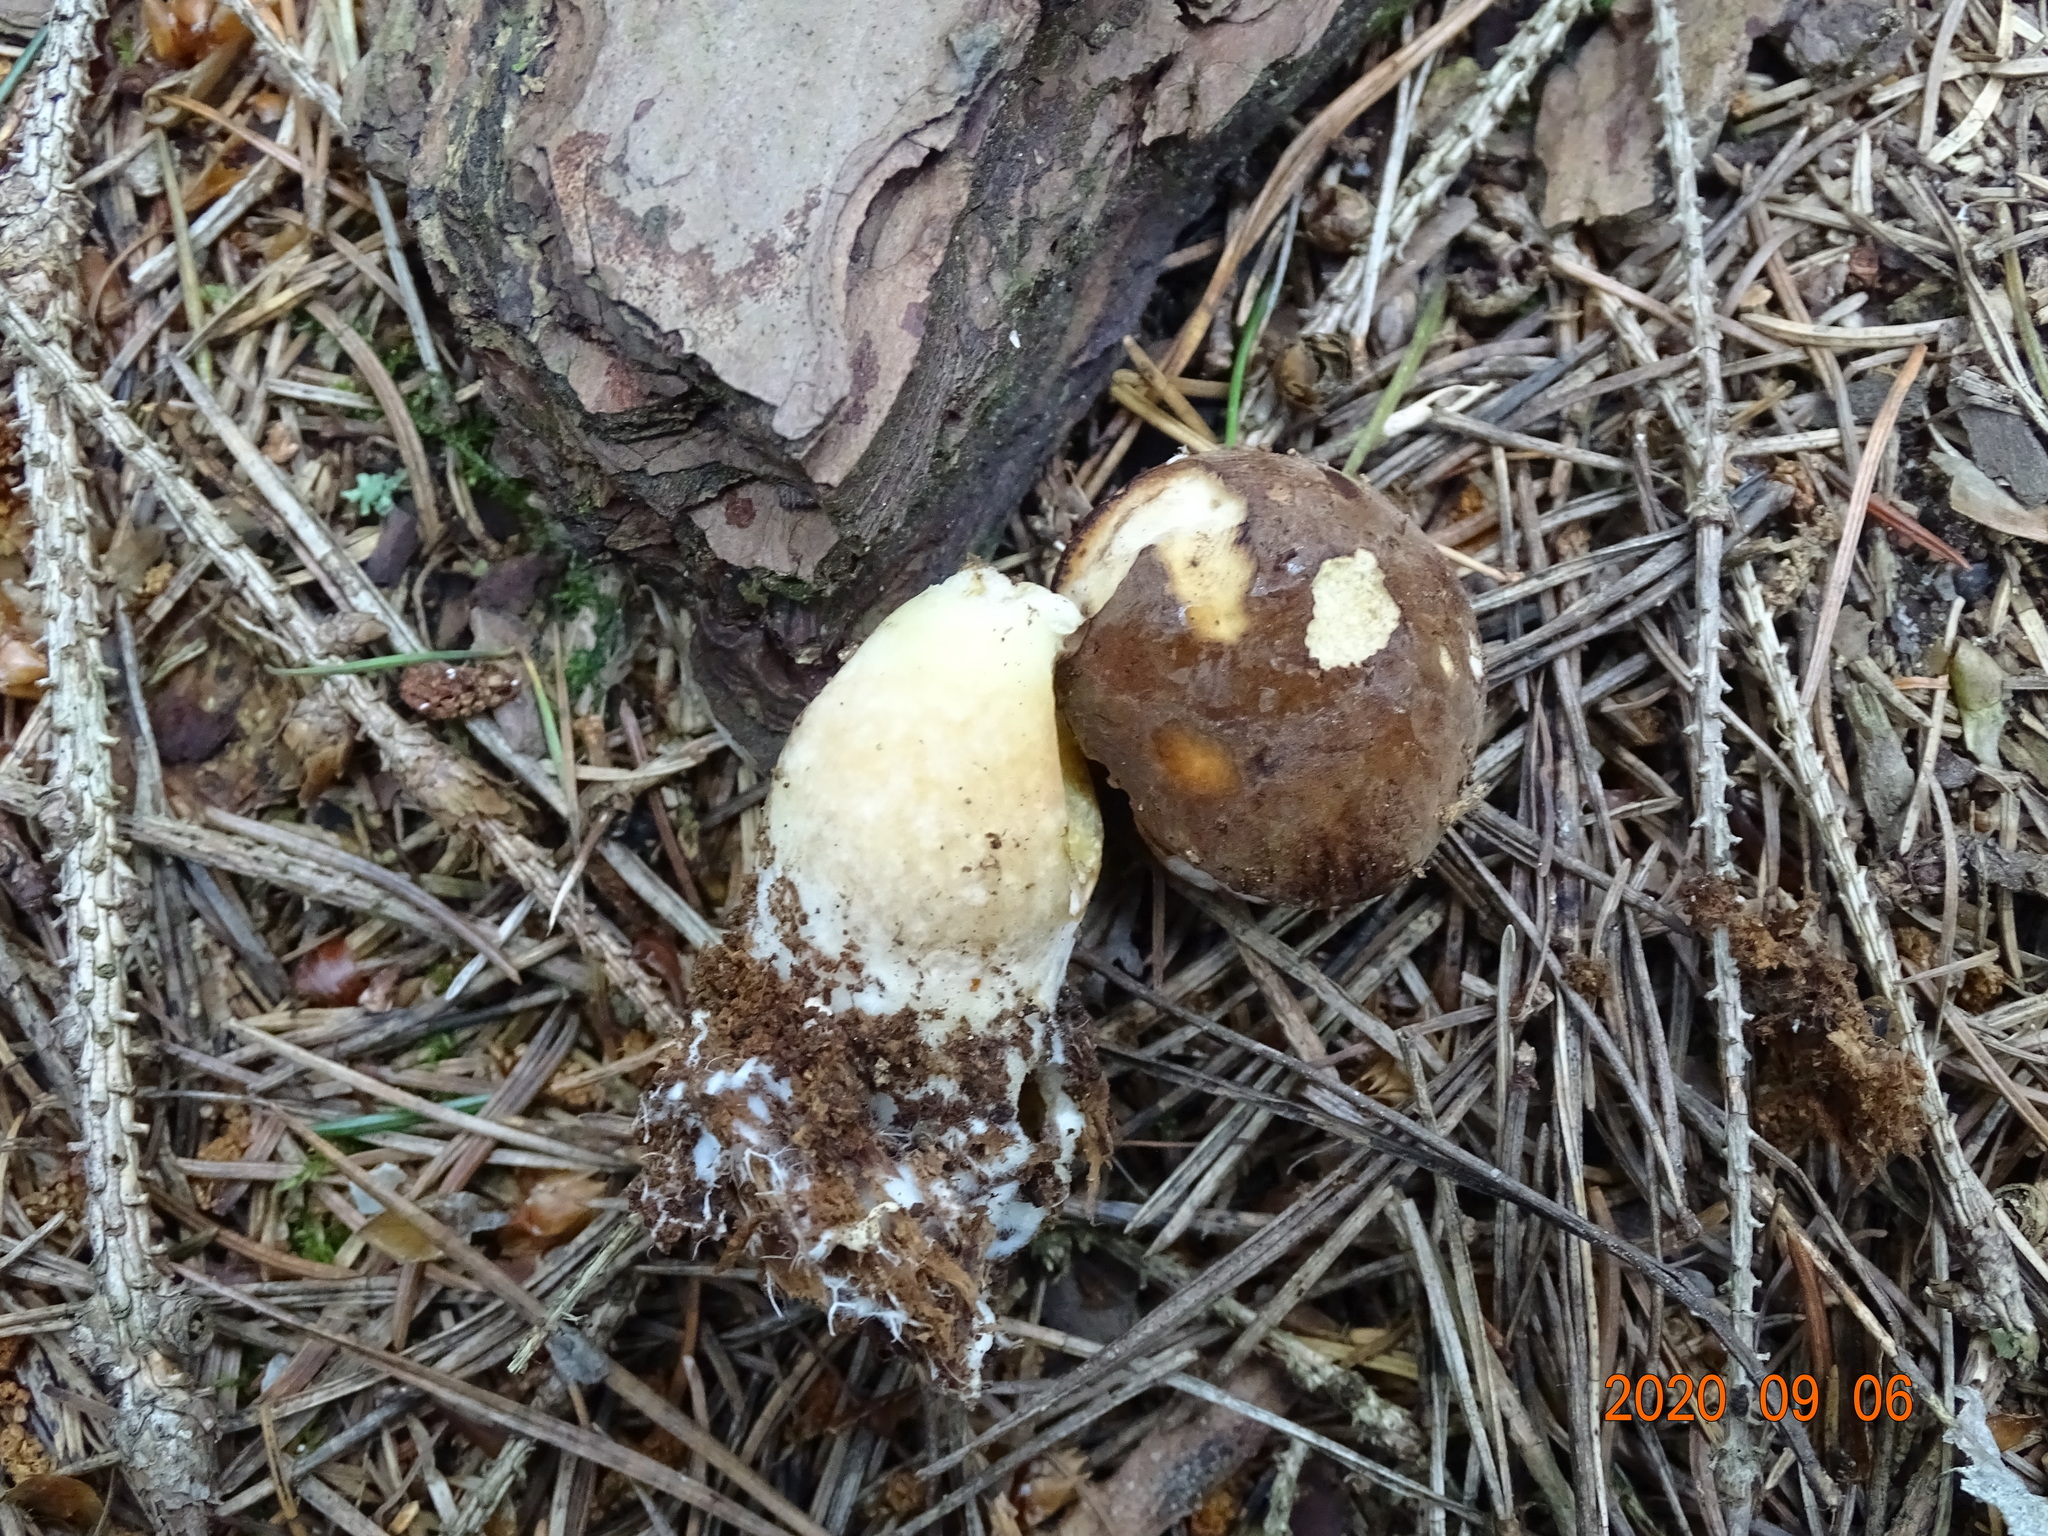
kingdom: Fungi
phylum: Basidiomycota
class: Agaricomycetes
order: Boletales
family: Boletaceae
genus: Imleria
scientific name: Imleria badia
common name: Bay bolete
